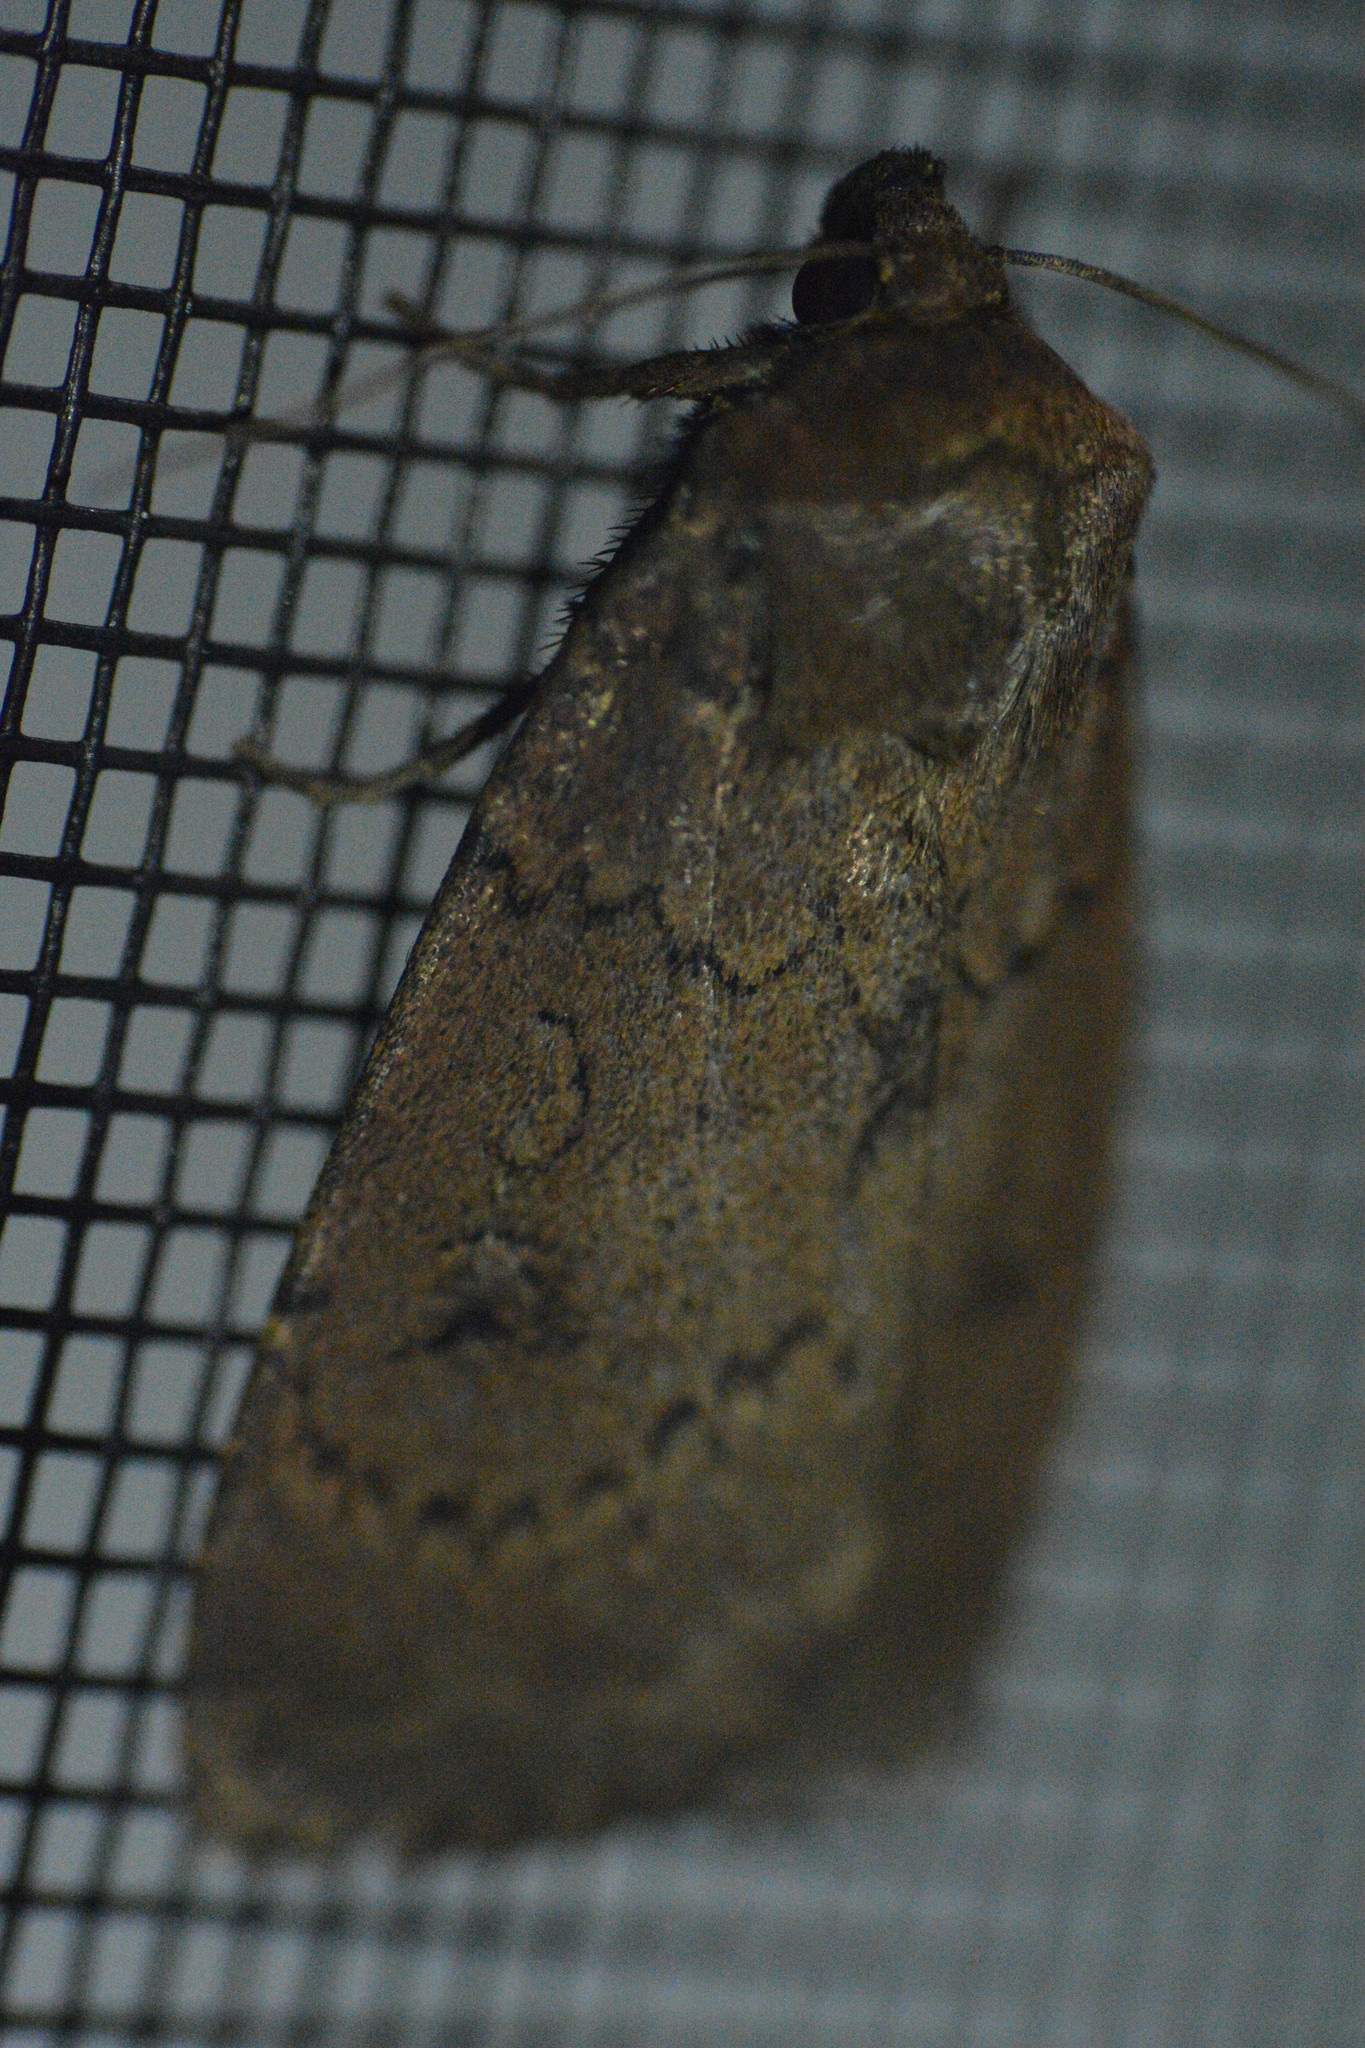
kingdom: Animalia
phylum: Arthropoda
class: Insecta
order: Lepidoptera
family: Noctuidae
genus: Graphiphora
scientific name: Graphiphora augur
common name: Double dart
